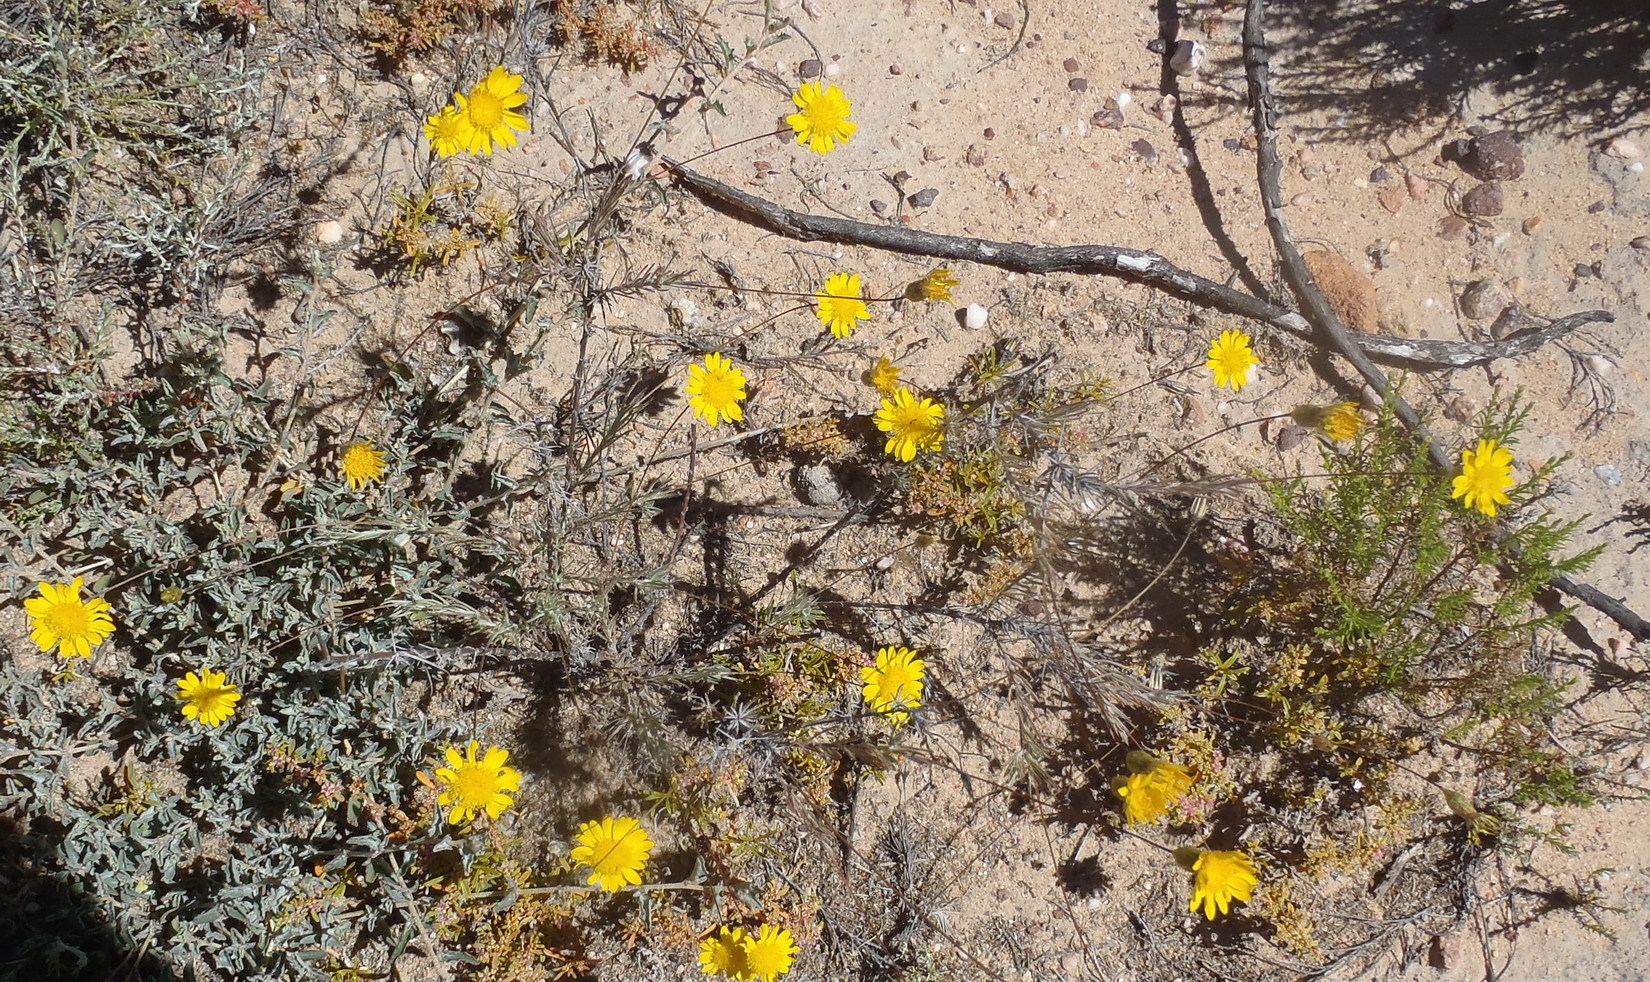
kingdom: Plantae
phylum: Tracheophyta
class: Magnoliopsida
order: Asterales
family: Asteraceae
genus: Leysera
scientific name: Leysera gnaphalodes
